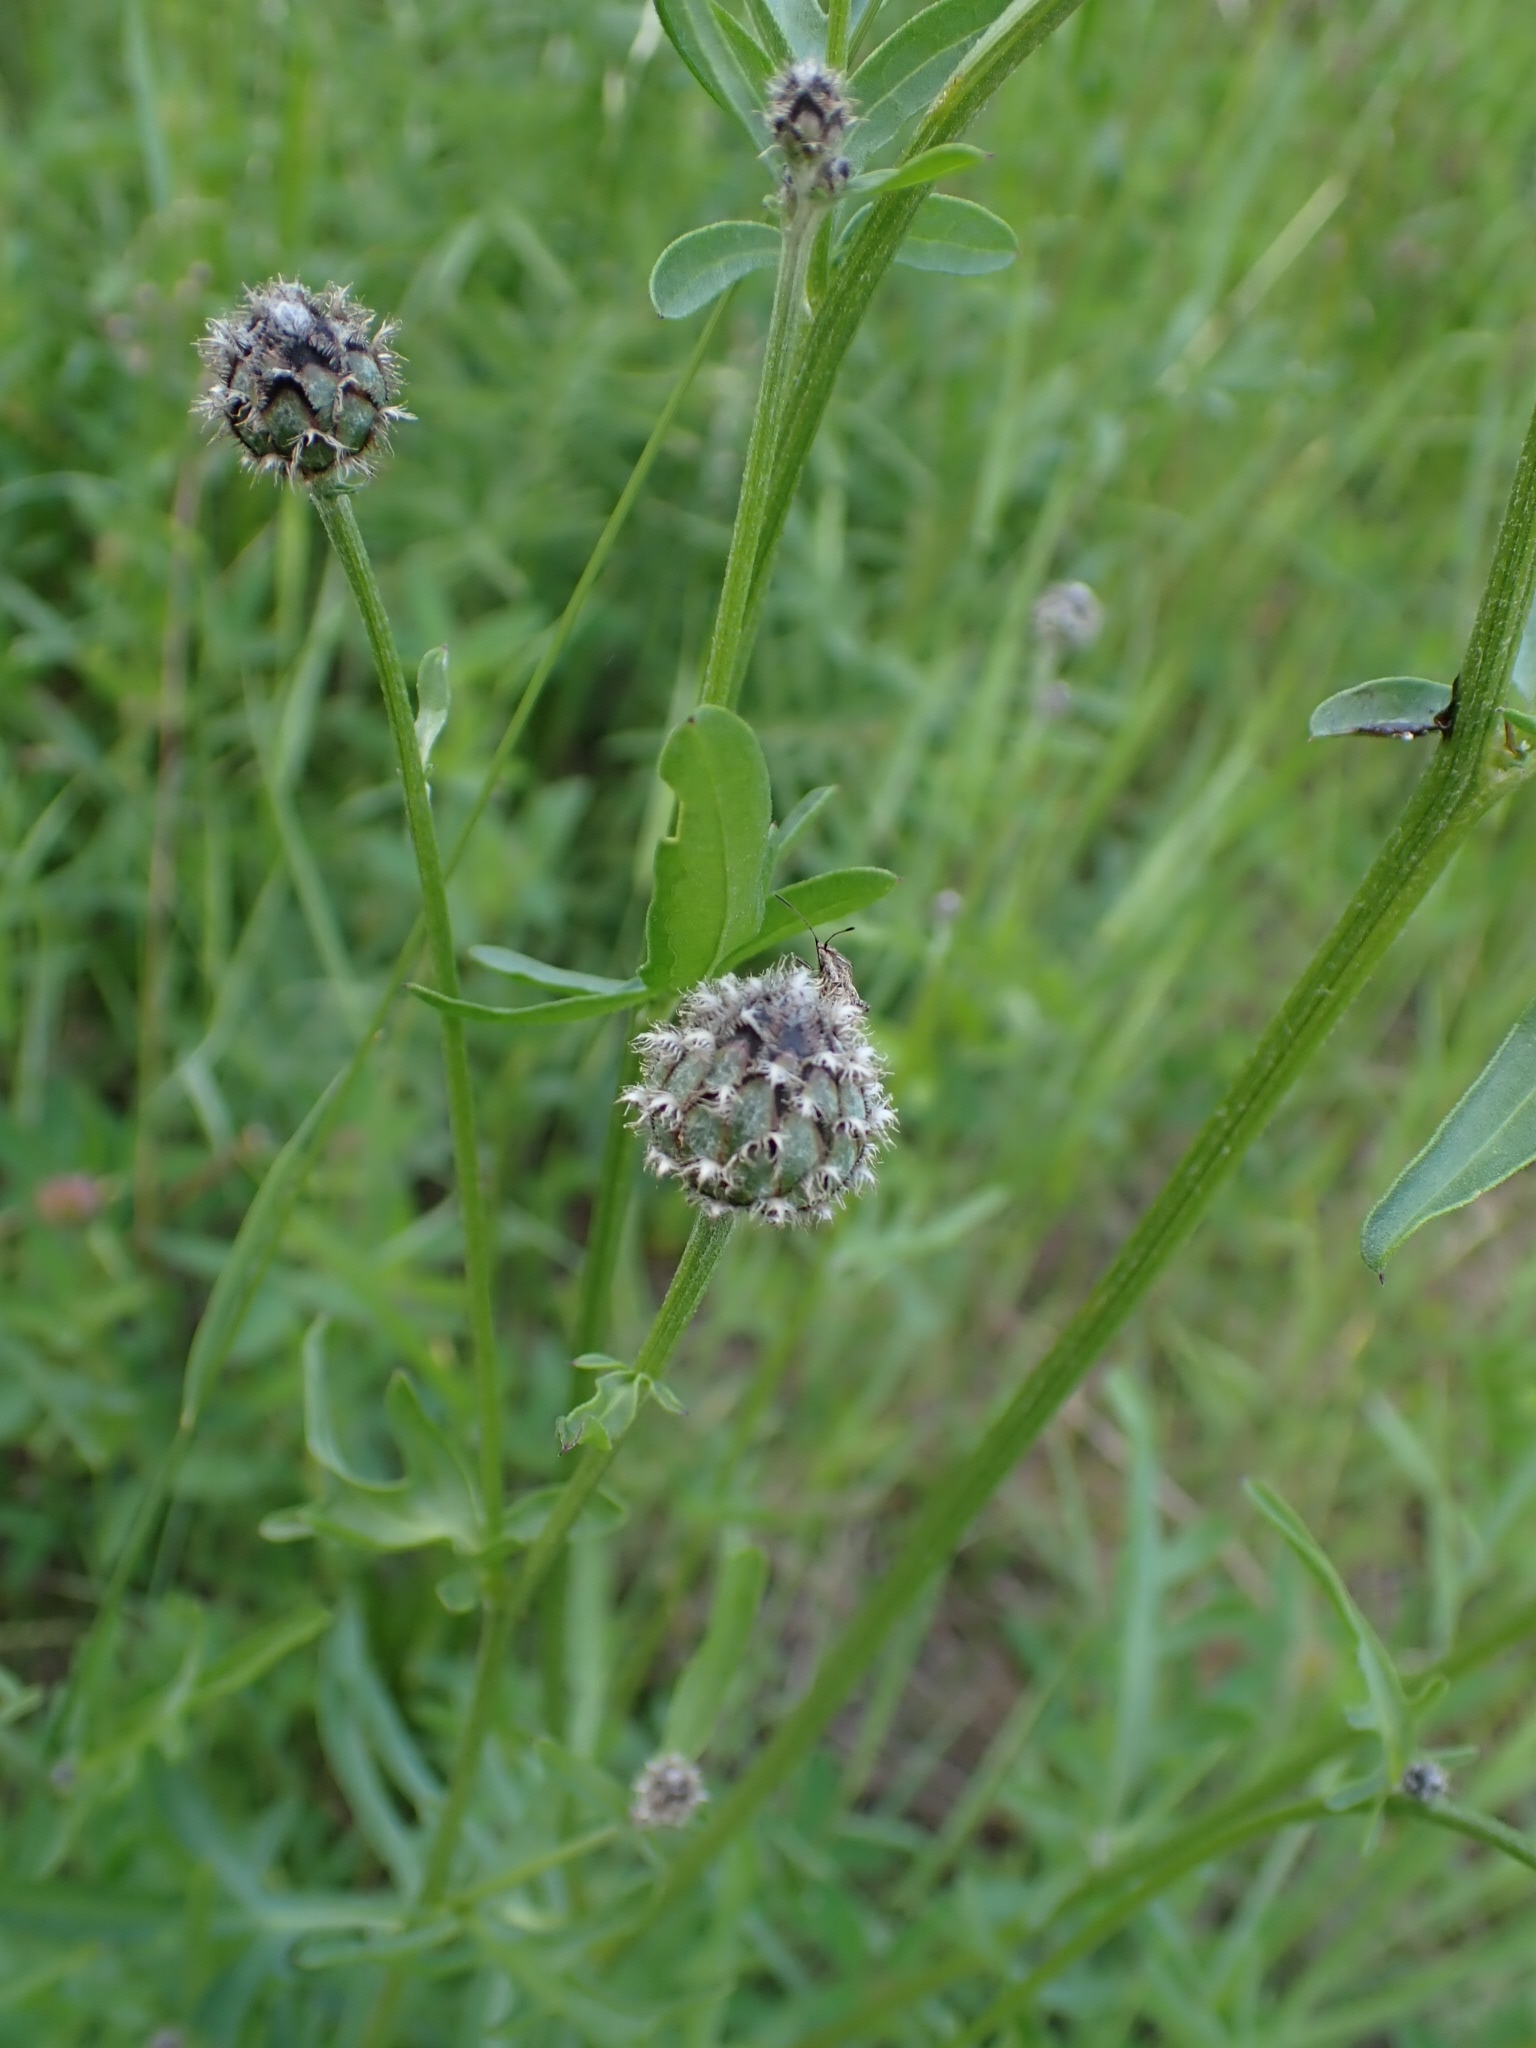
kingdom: Plantae
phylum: Tracheophyta
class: Magnoliopsida
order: Asterales
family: Asteraceae
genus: Centaurea
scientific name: Centaurea scabiosa
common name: Greater knapweed
